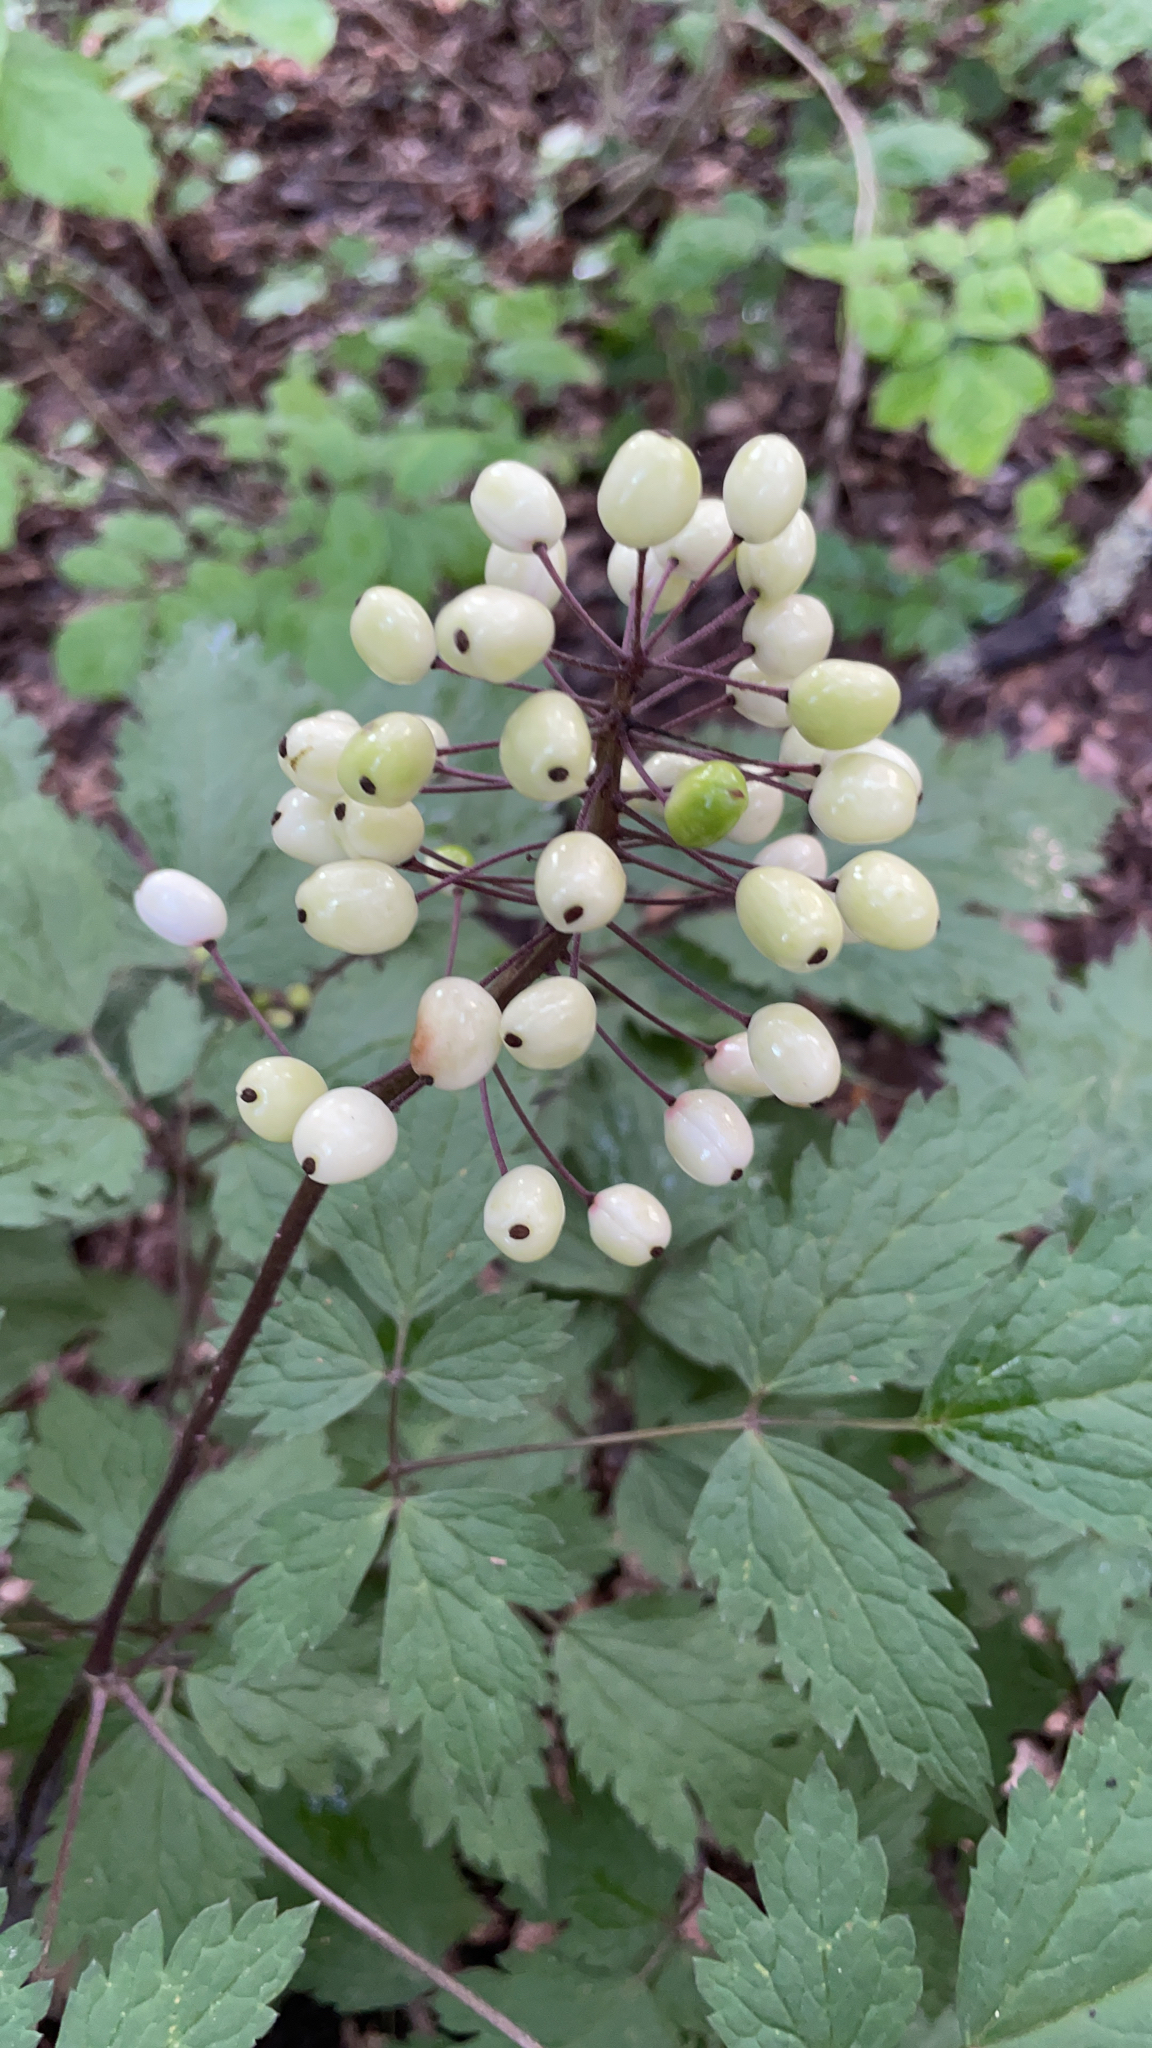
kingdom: Plantae
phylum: Tracheophyta
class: Magnoliopsida
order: Ranunculales
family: Ranunculaceae
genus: Actaea
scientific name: Actaea rubra
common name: Red baneberry
